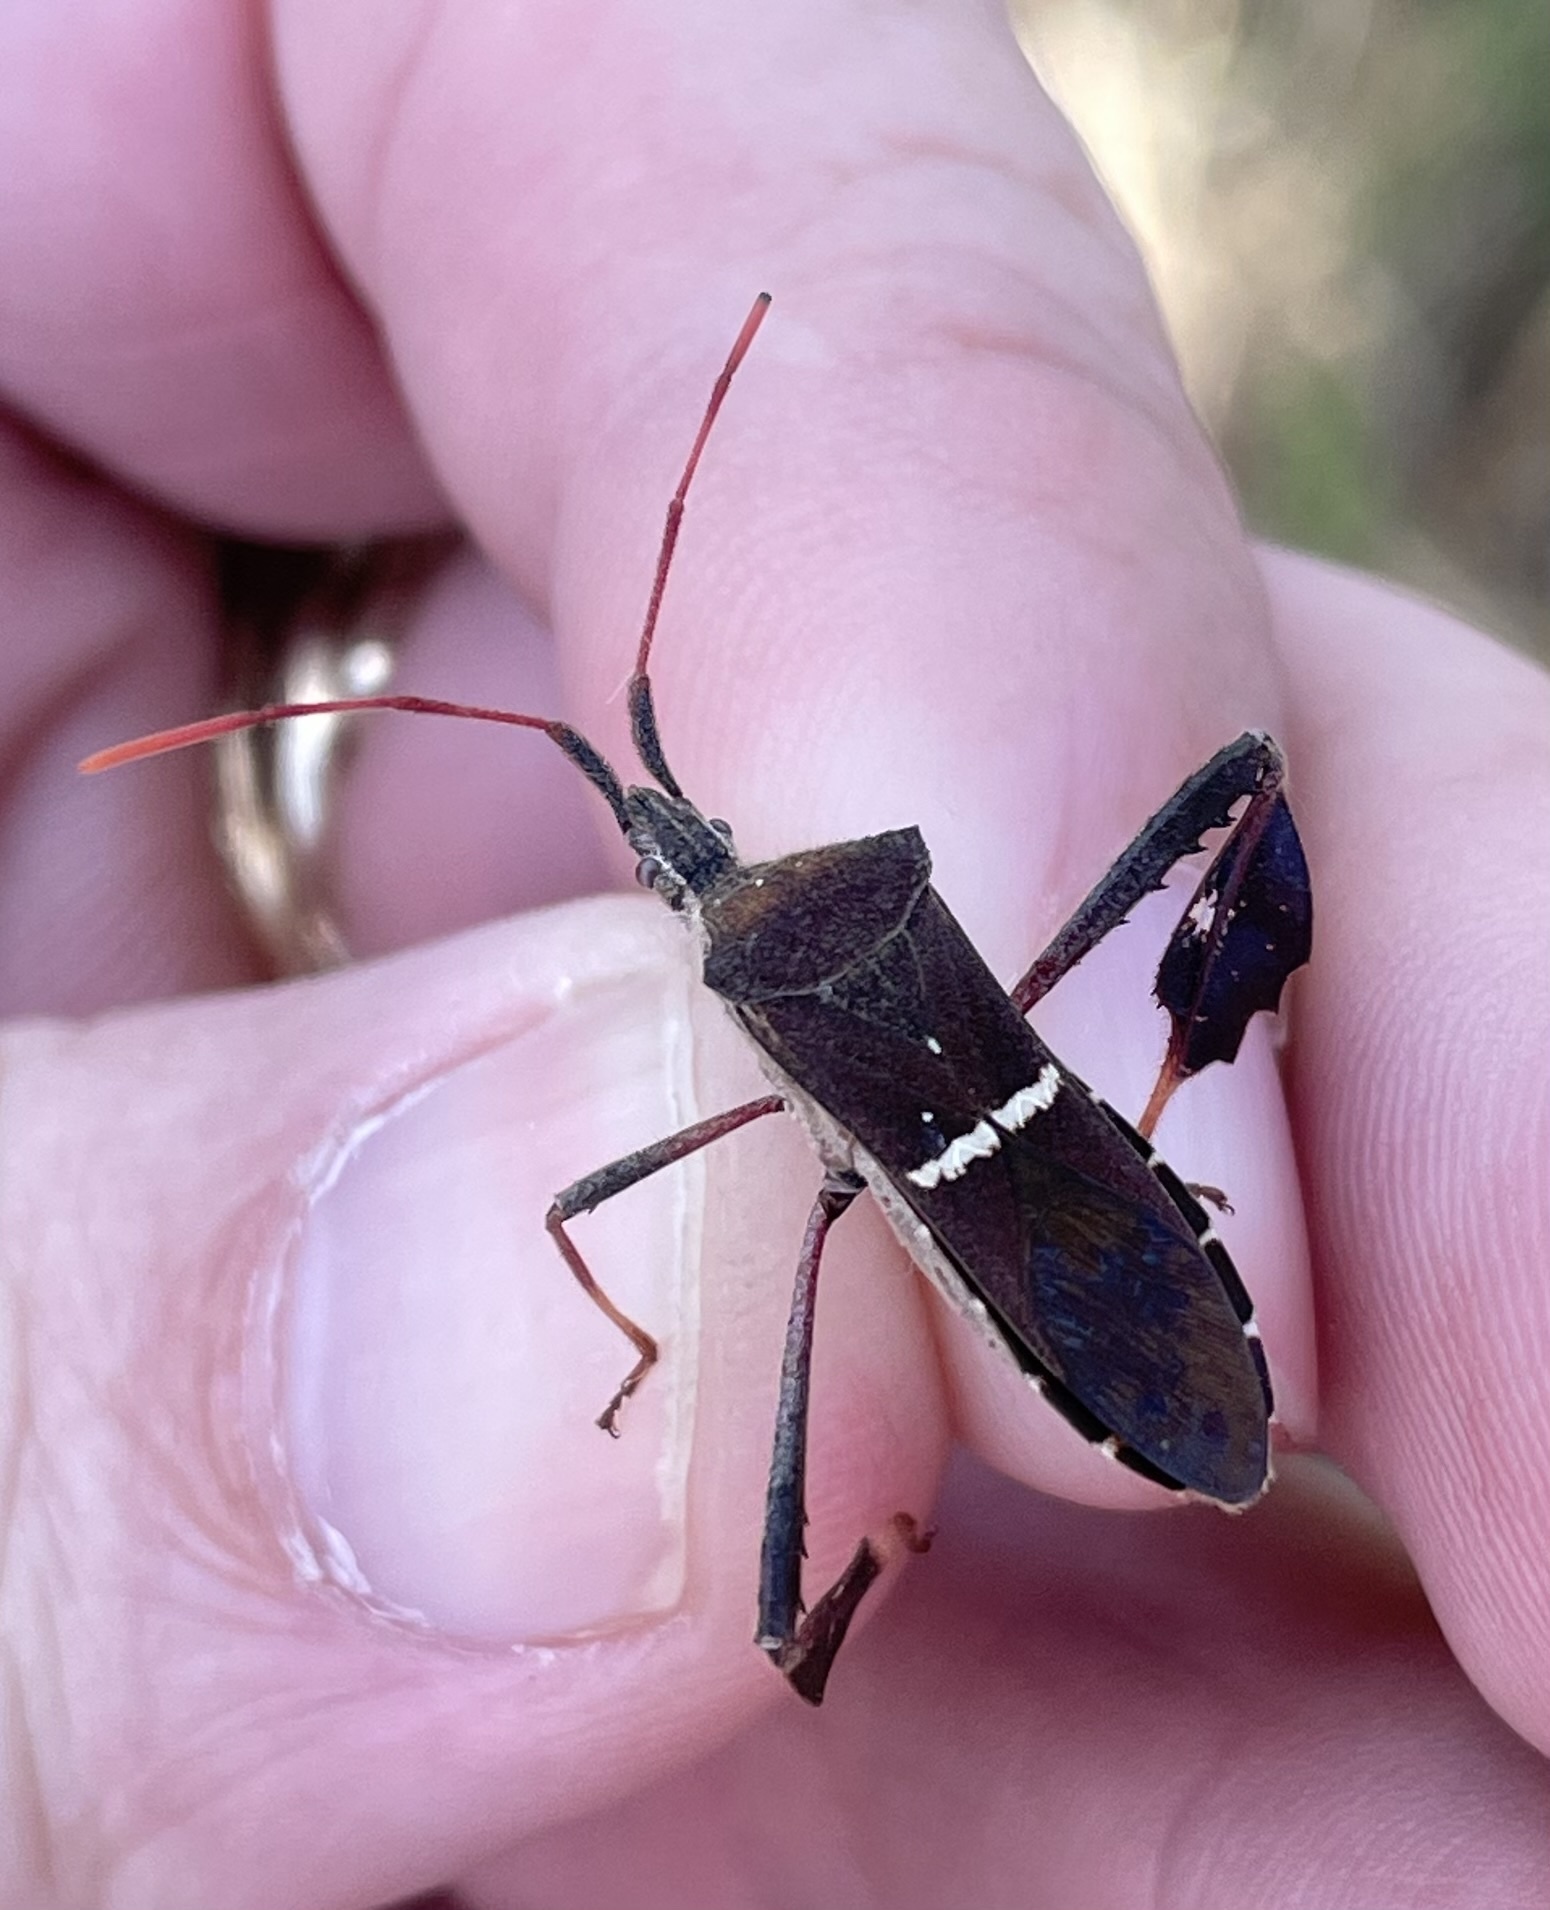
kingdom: Animalia
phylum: Arthropoda
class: Insecta
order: Hemiptera
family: Coreidae
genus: Leptoglossus
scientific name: Leptoglossus phyllopus
